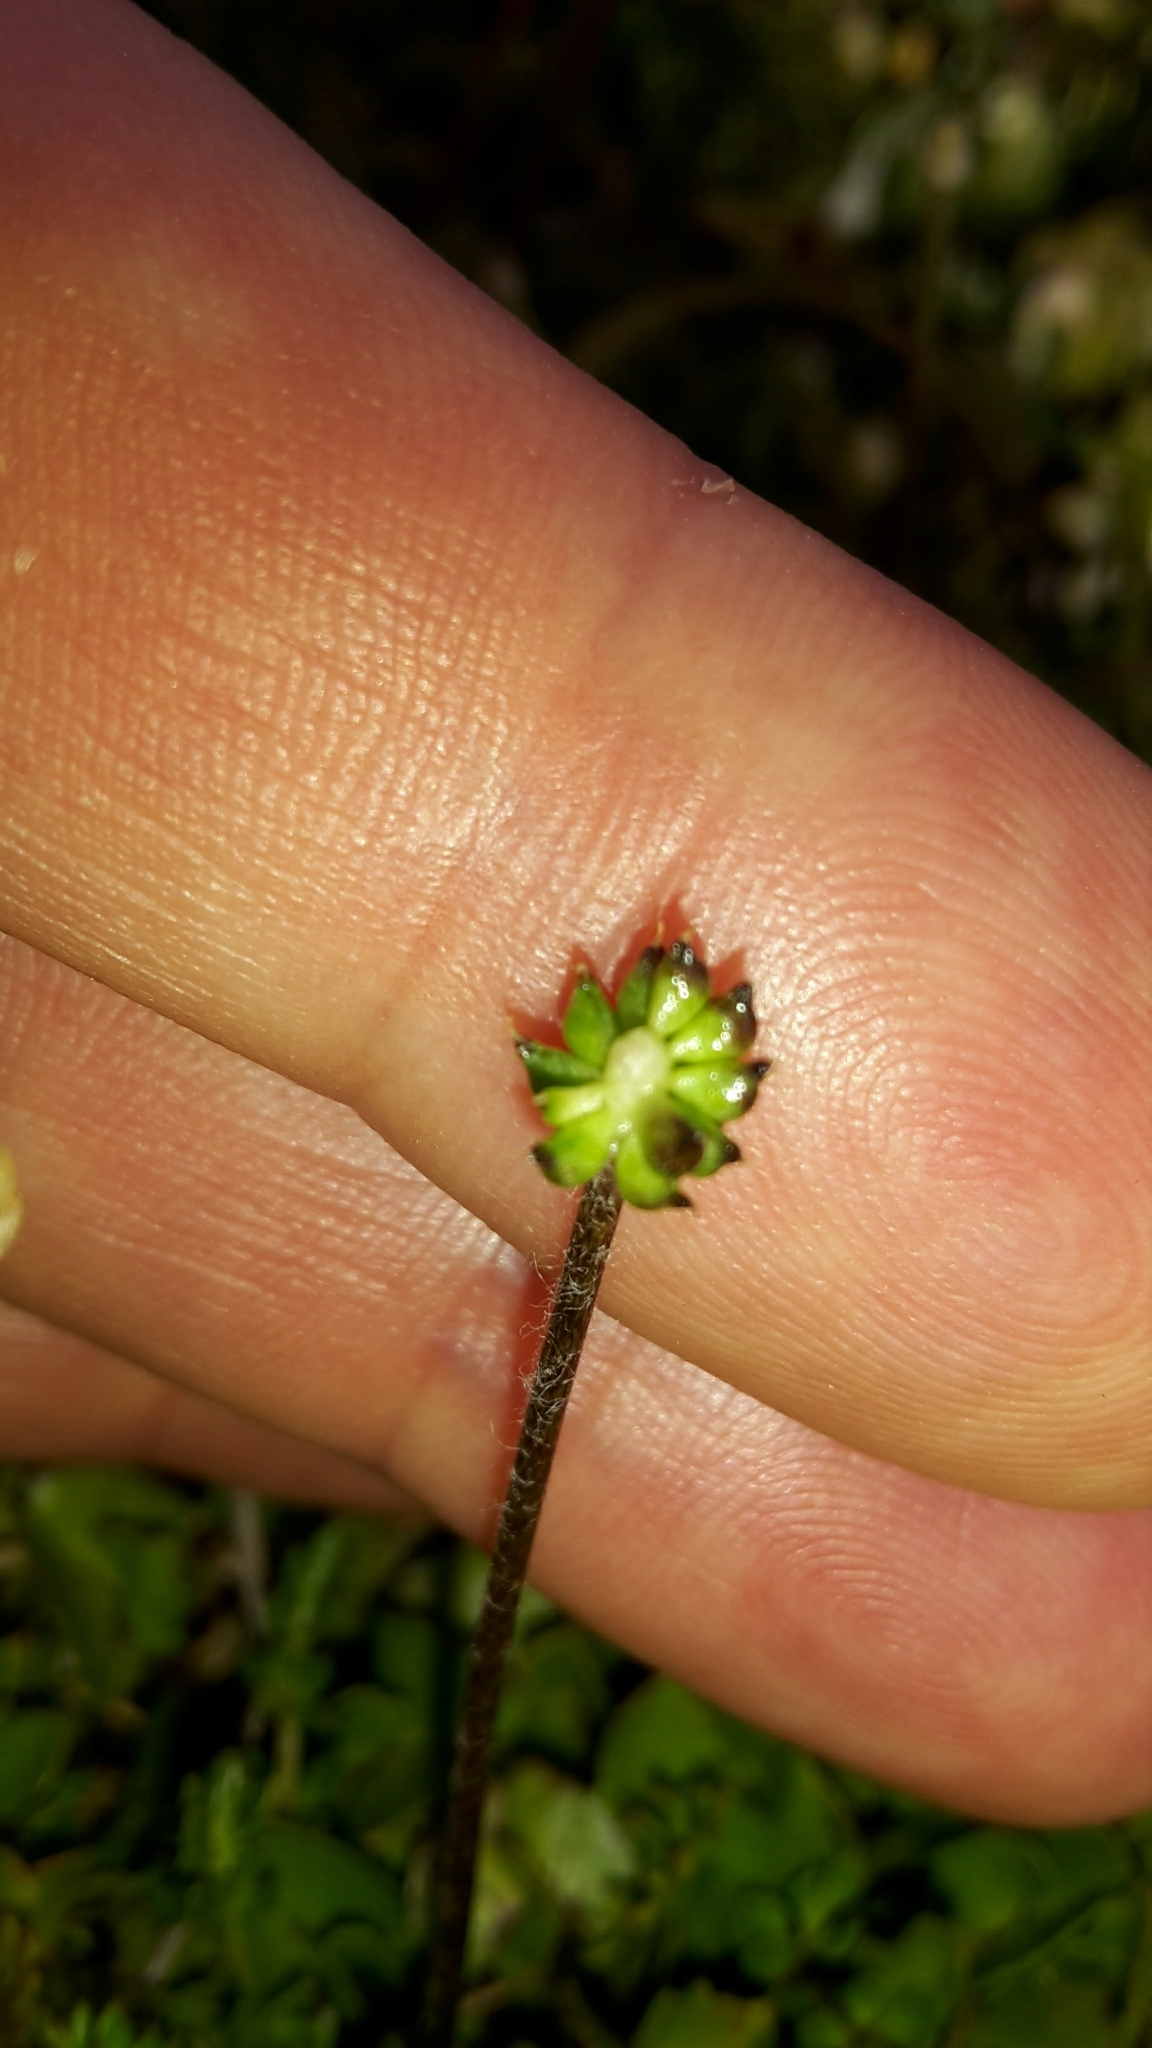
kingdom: Plantae
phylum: Tracheophyta
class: Magnoliopsida
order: Ranunculales
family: Ranunculaceae
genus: Ranunculus
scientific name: Ranunculus gracilipes
